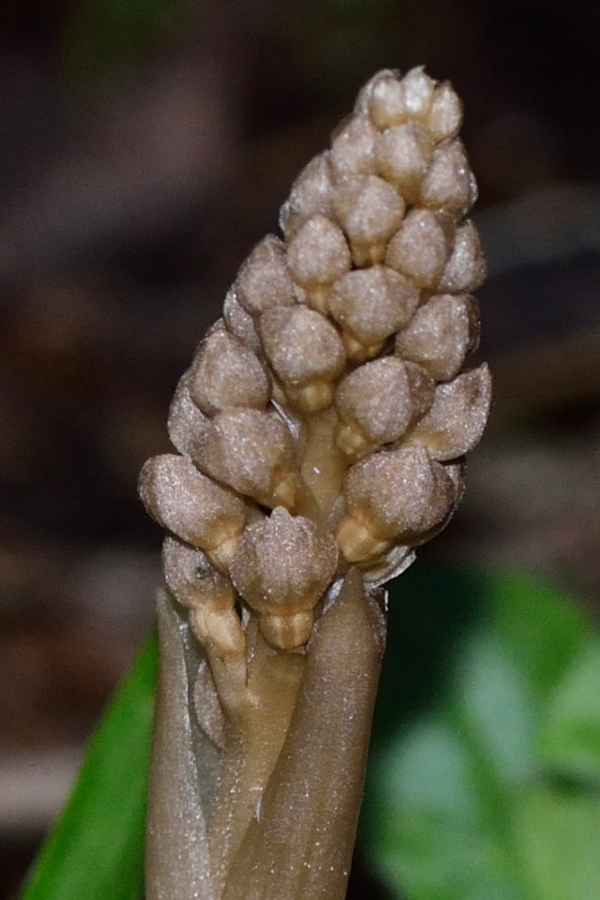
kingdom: Plantae
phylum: Tracheophyta
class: Liliopsida
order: Asparagales
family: Orchidaceae
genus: Neottia
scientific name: Neottia nidus-avis
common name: Bird's-nest orchid
